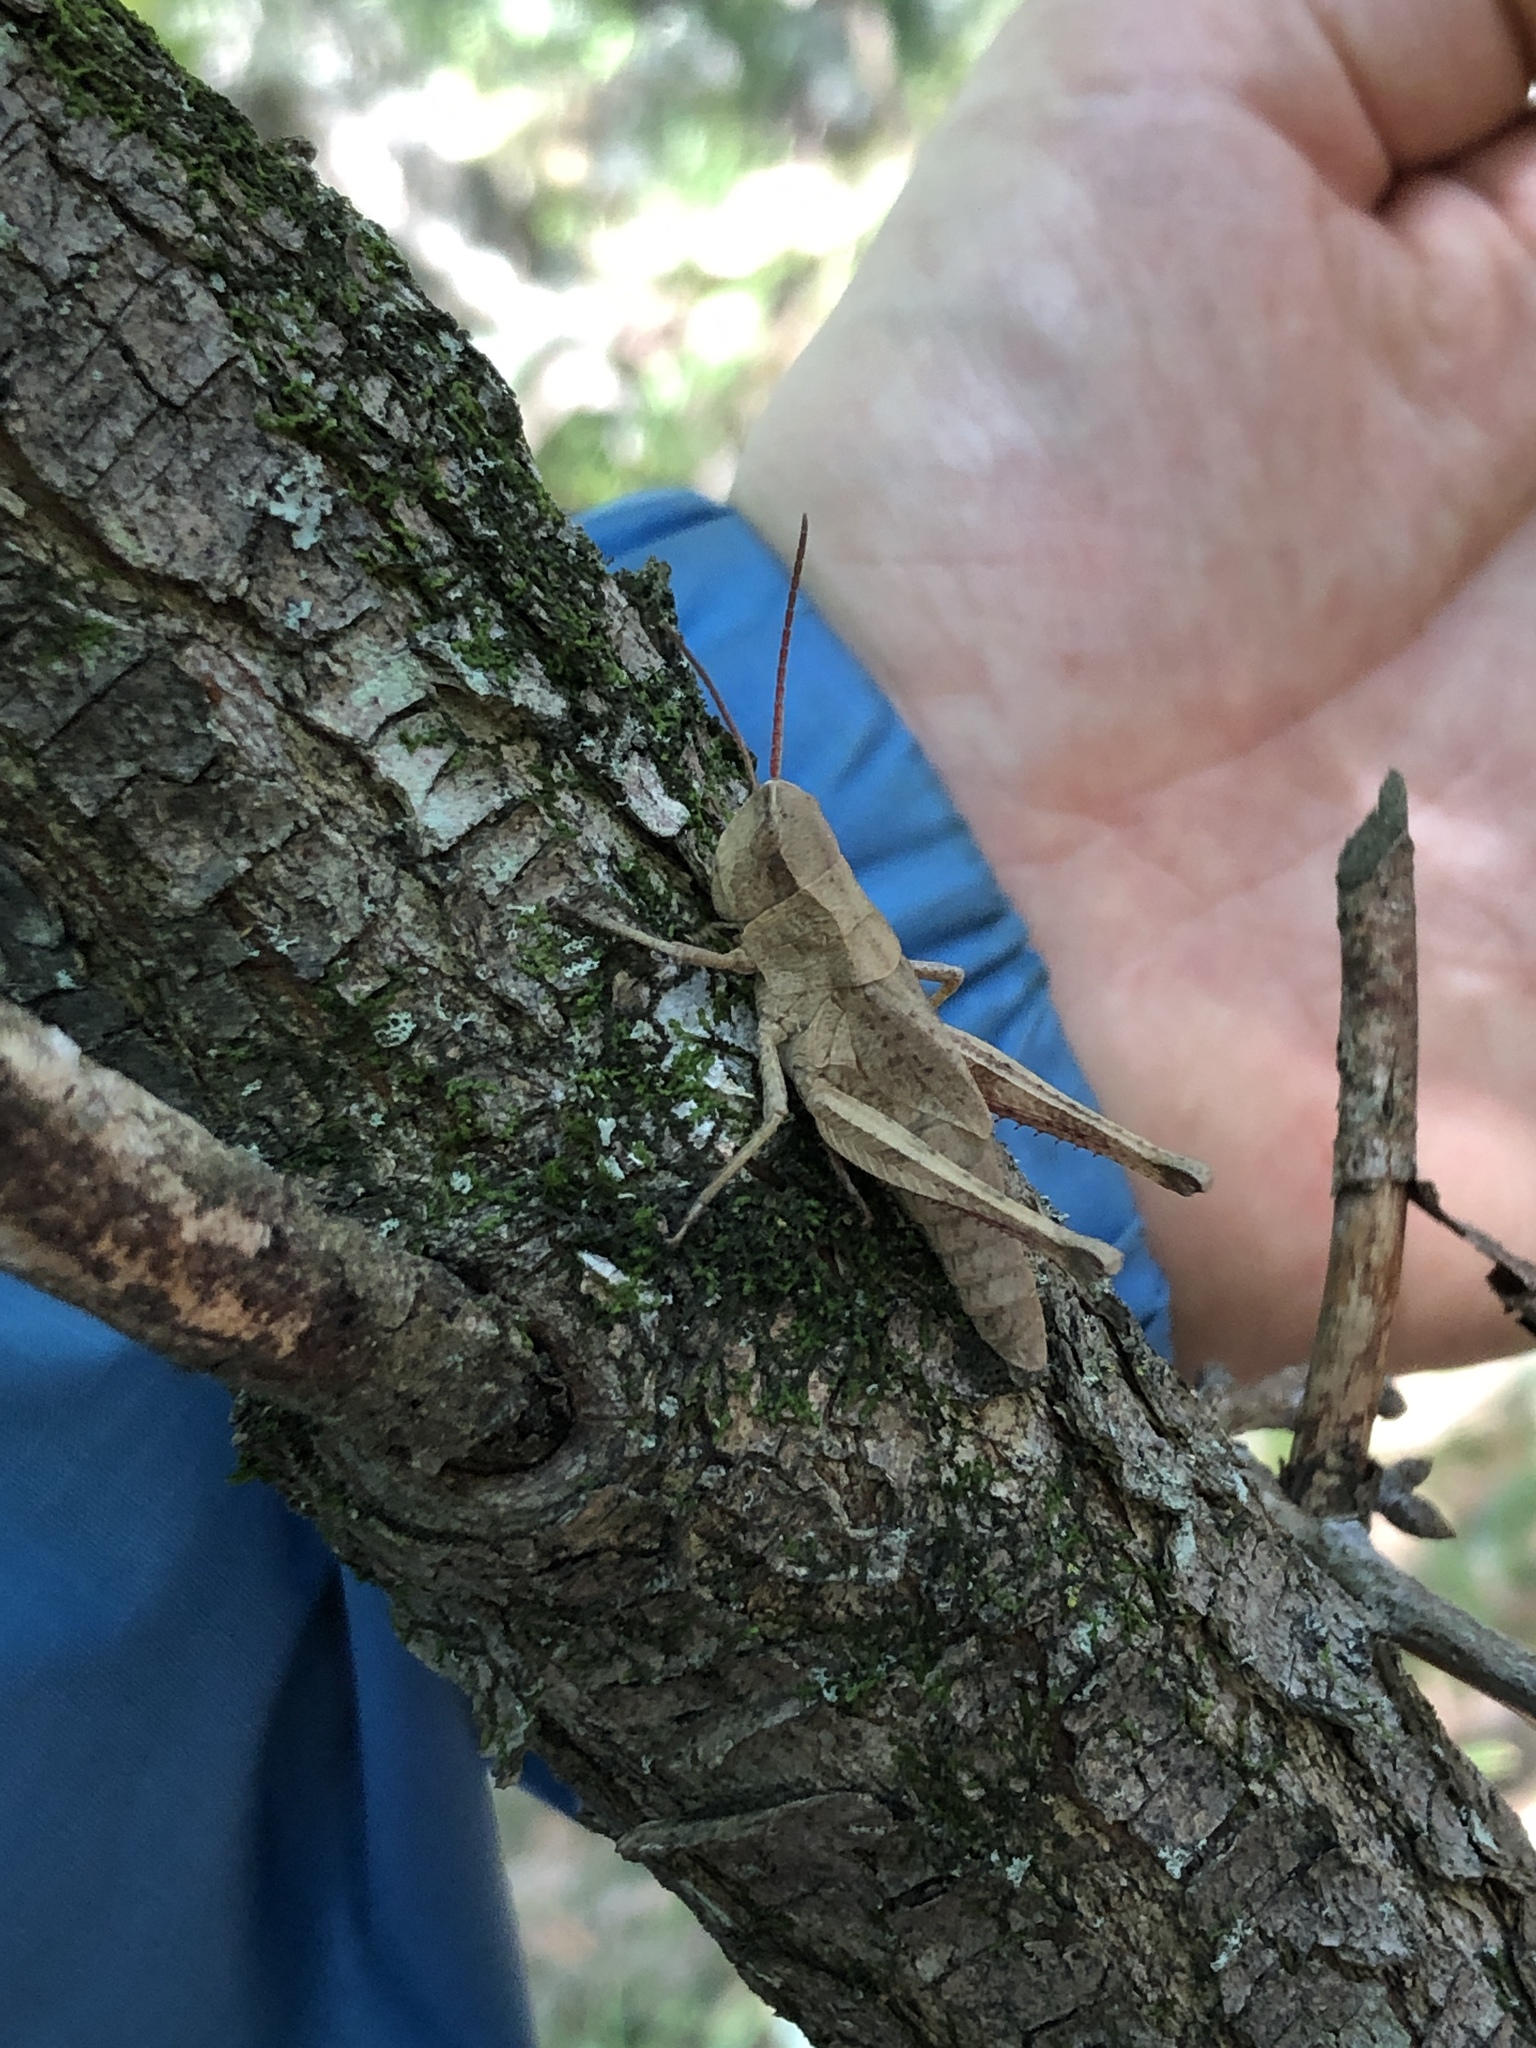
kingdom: Animalia
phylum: Arthropoda
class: Insecta
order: Orthoptera
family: Acrididae
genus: Chloealtis
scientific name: Chloealtis abdominalis
